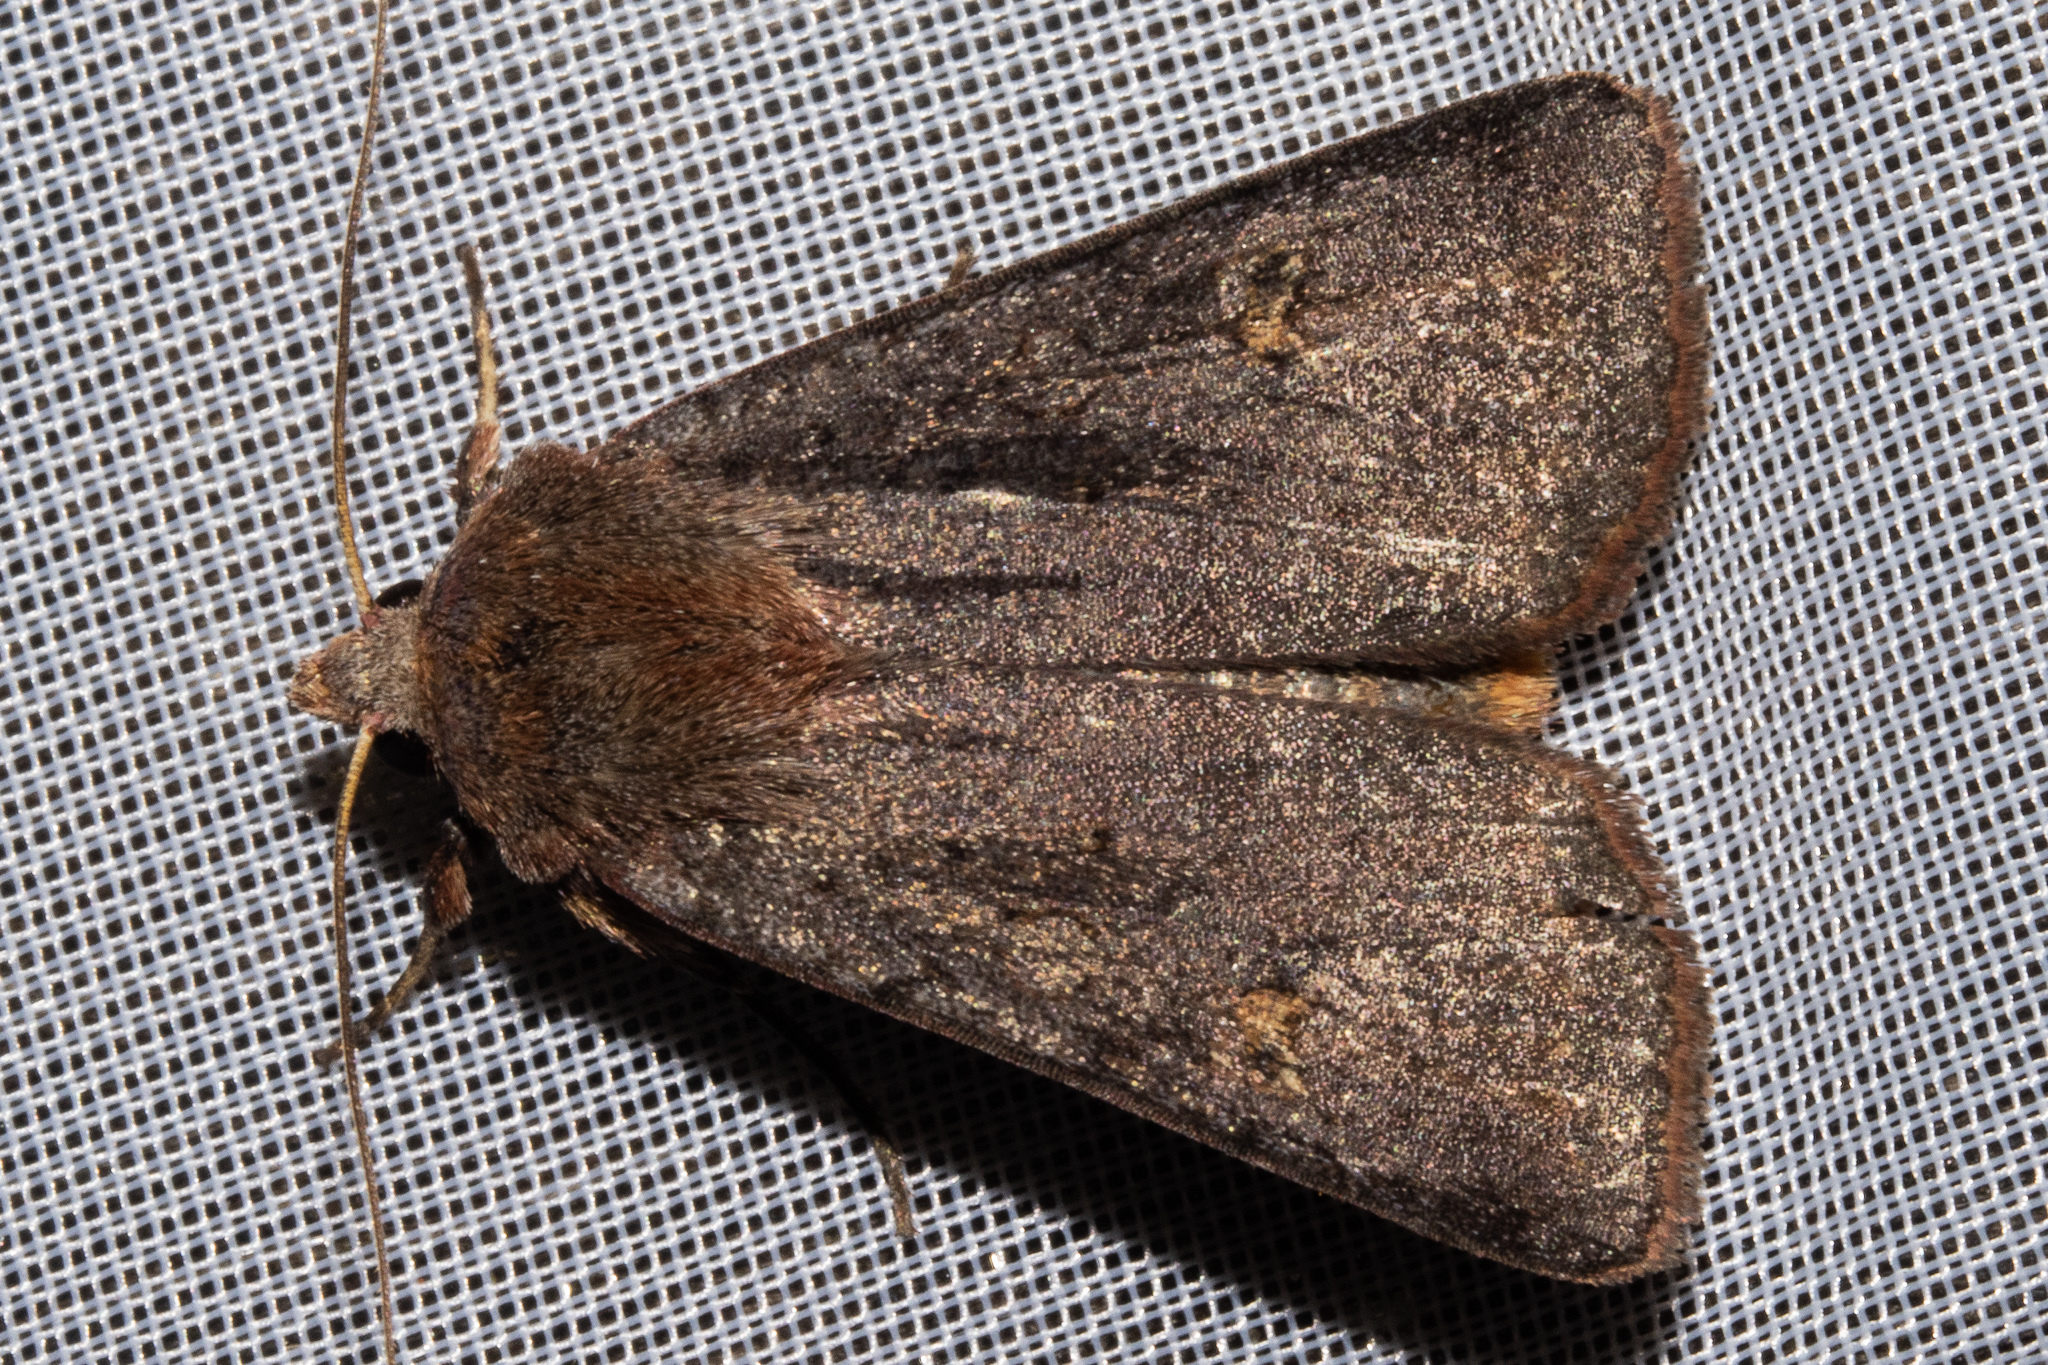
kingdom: Animalia
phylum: Arthropoda
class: Insecta
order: Lepidoptera
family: Noctuidae
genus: Ichneutica
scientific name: Ichneutica
